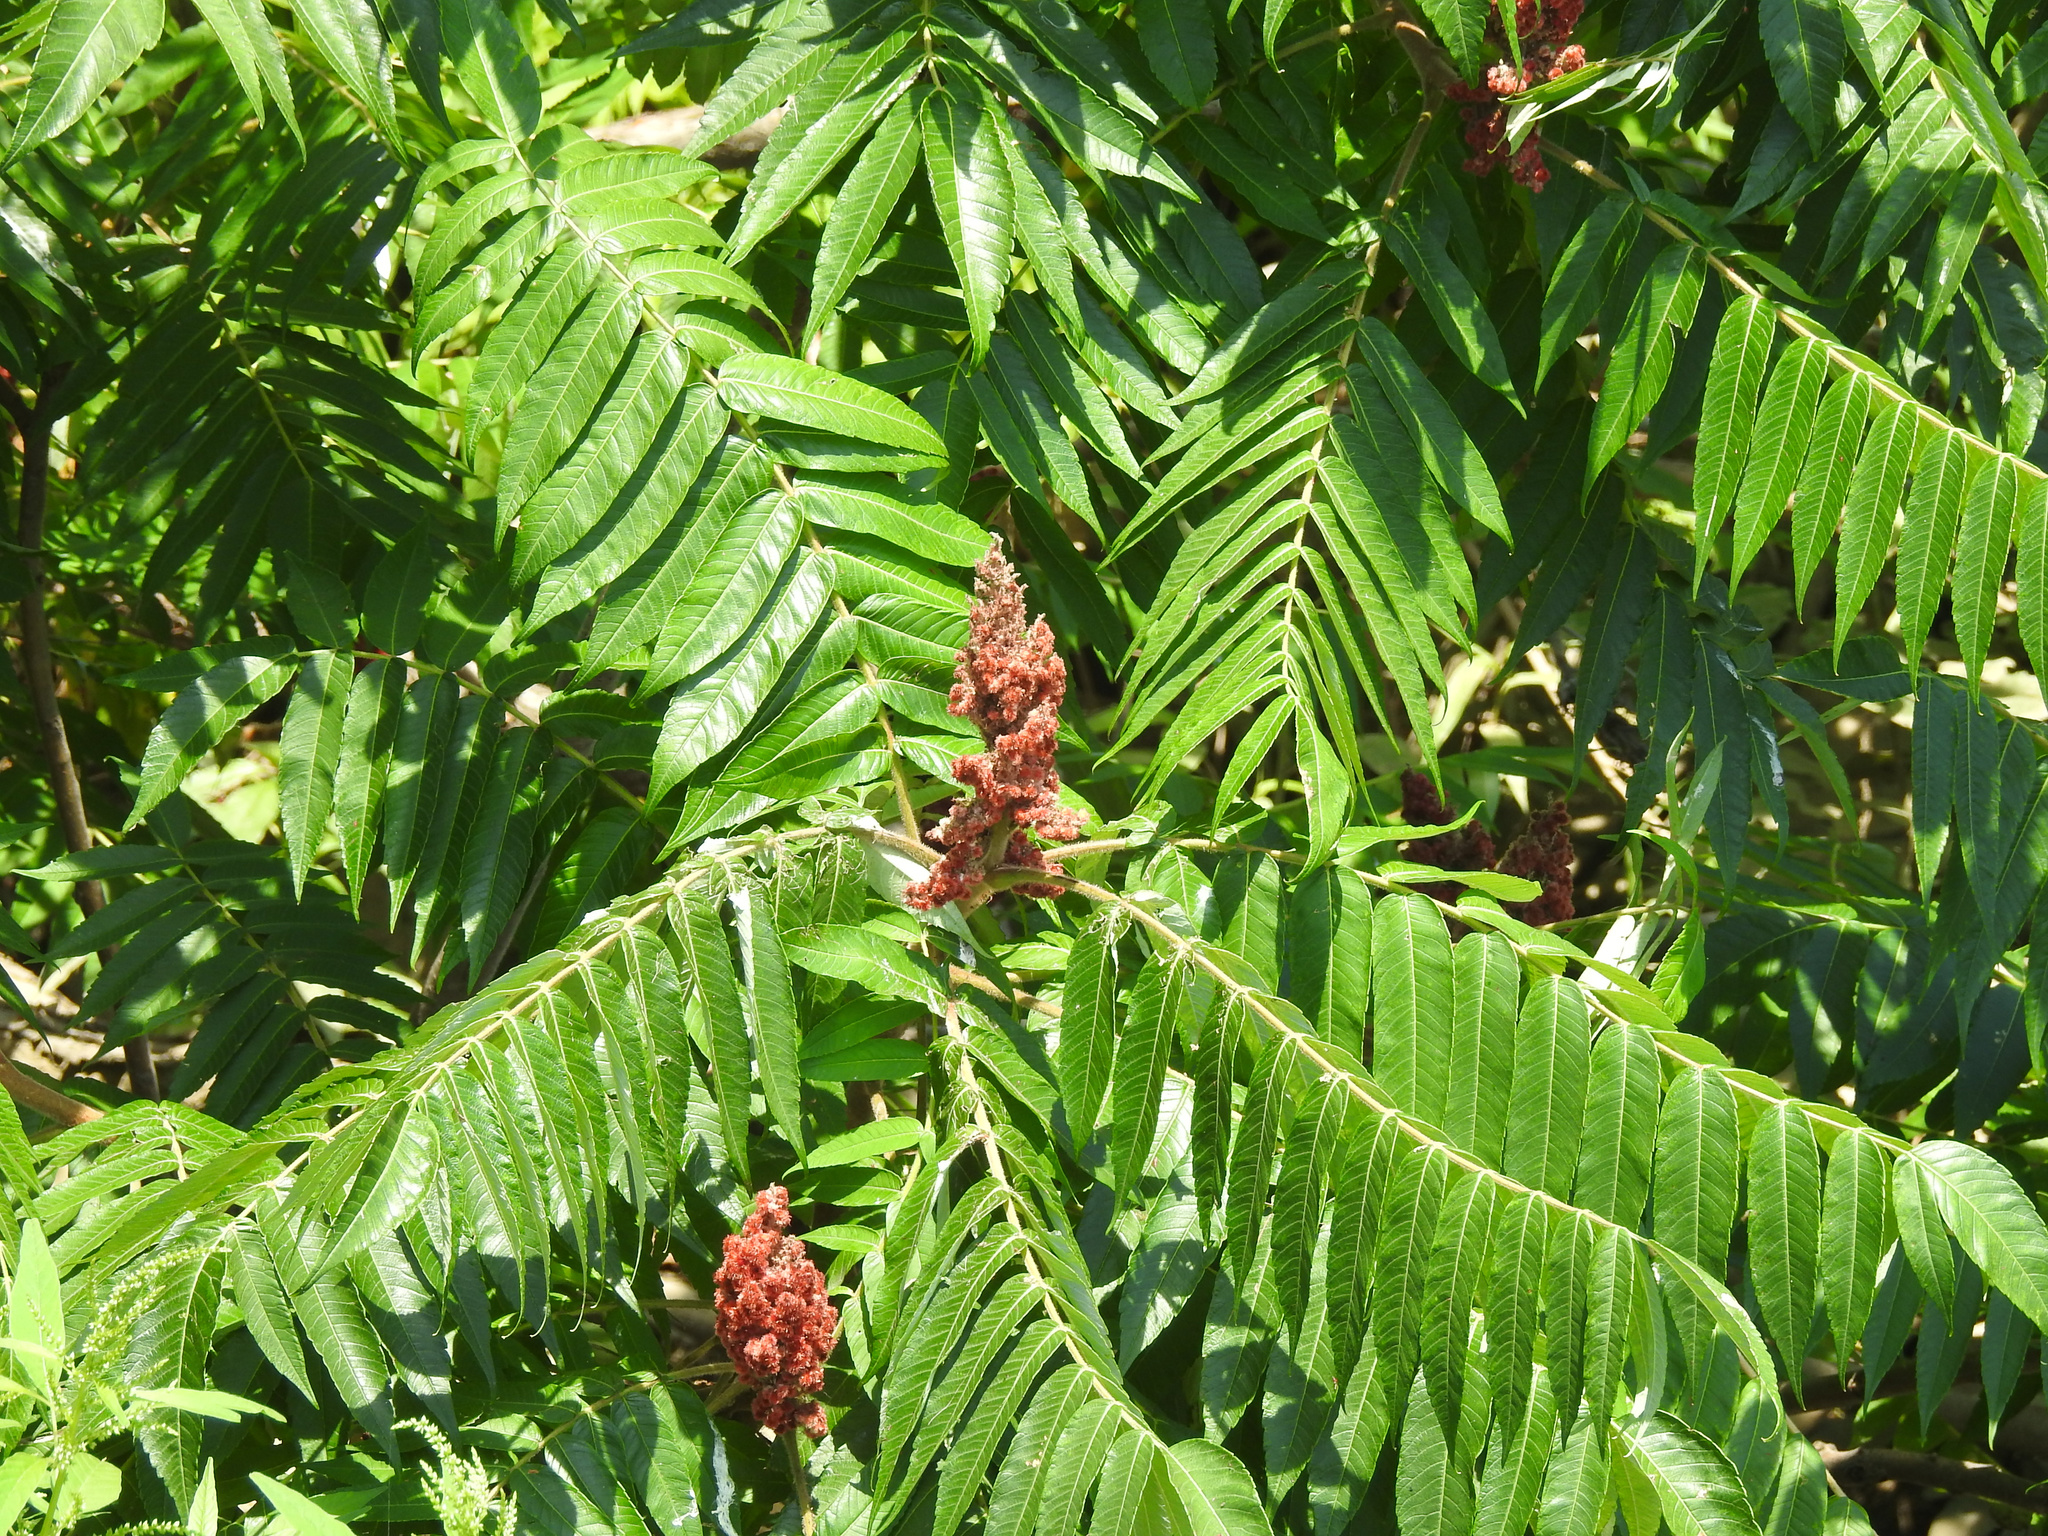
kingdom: Plantae
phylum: Tracheophyta
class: Magnoliopsida
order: Sapindales
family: Anacardiaceae
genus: Rhus
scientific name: Rhus typhina
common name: Staghorn sumac
